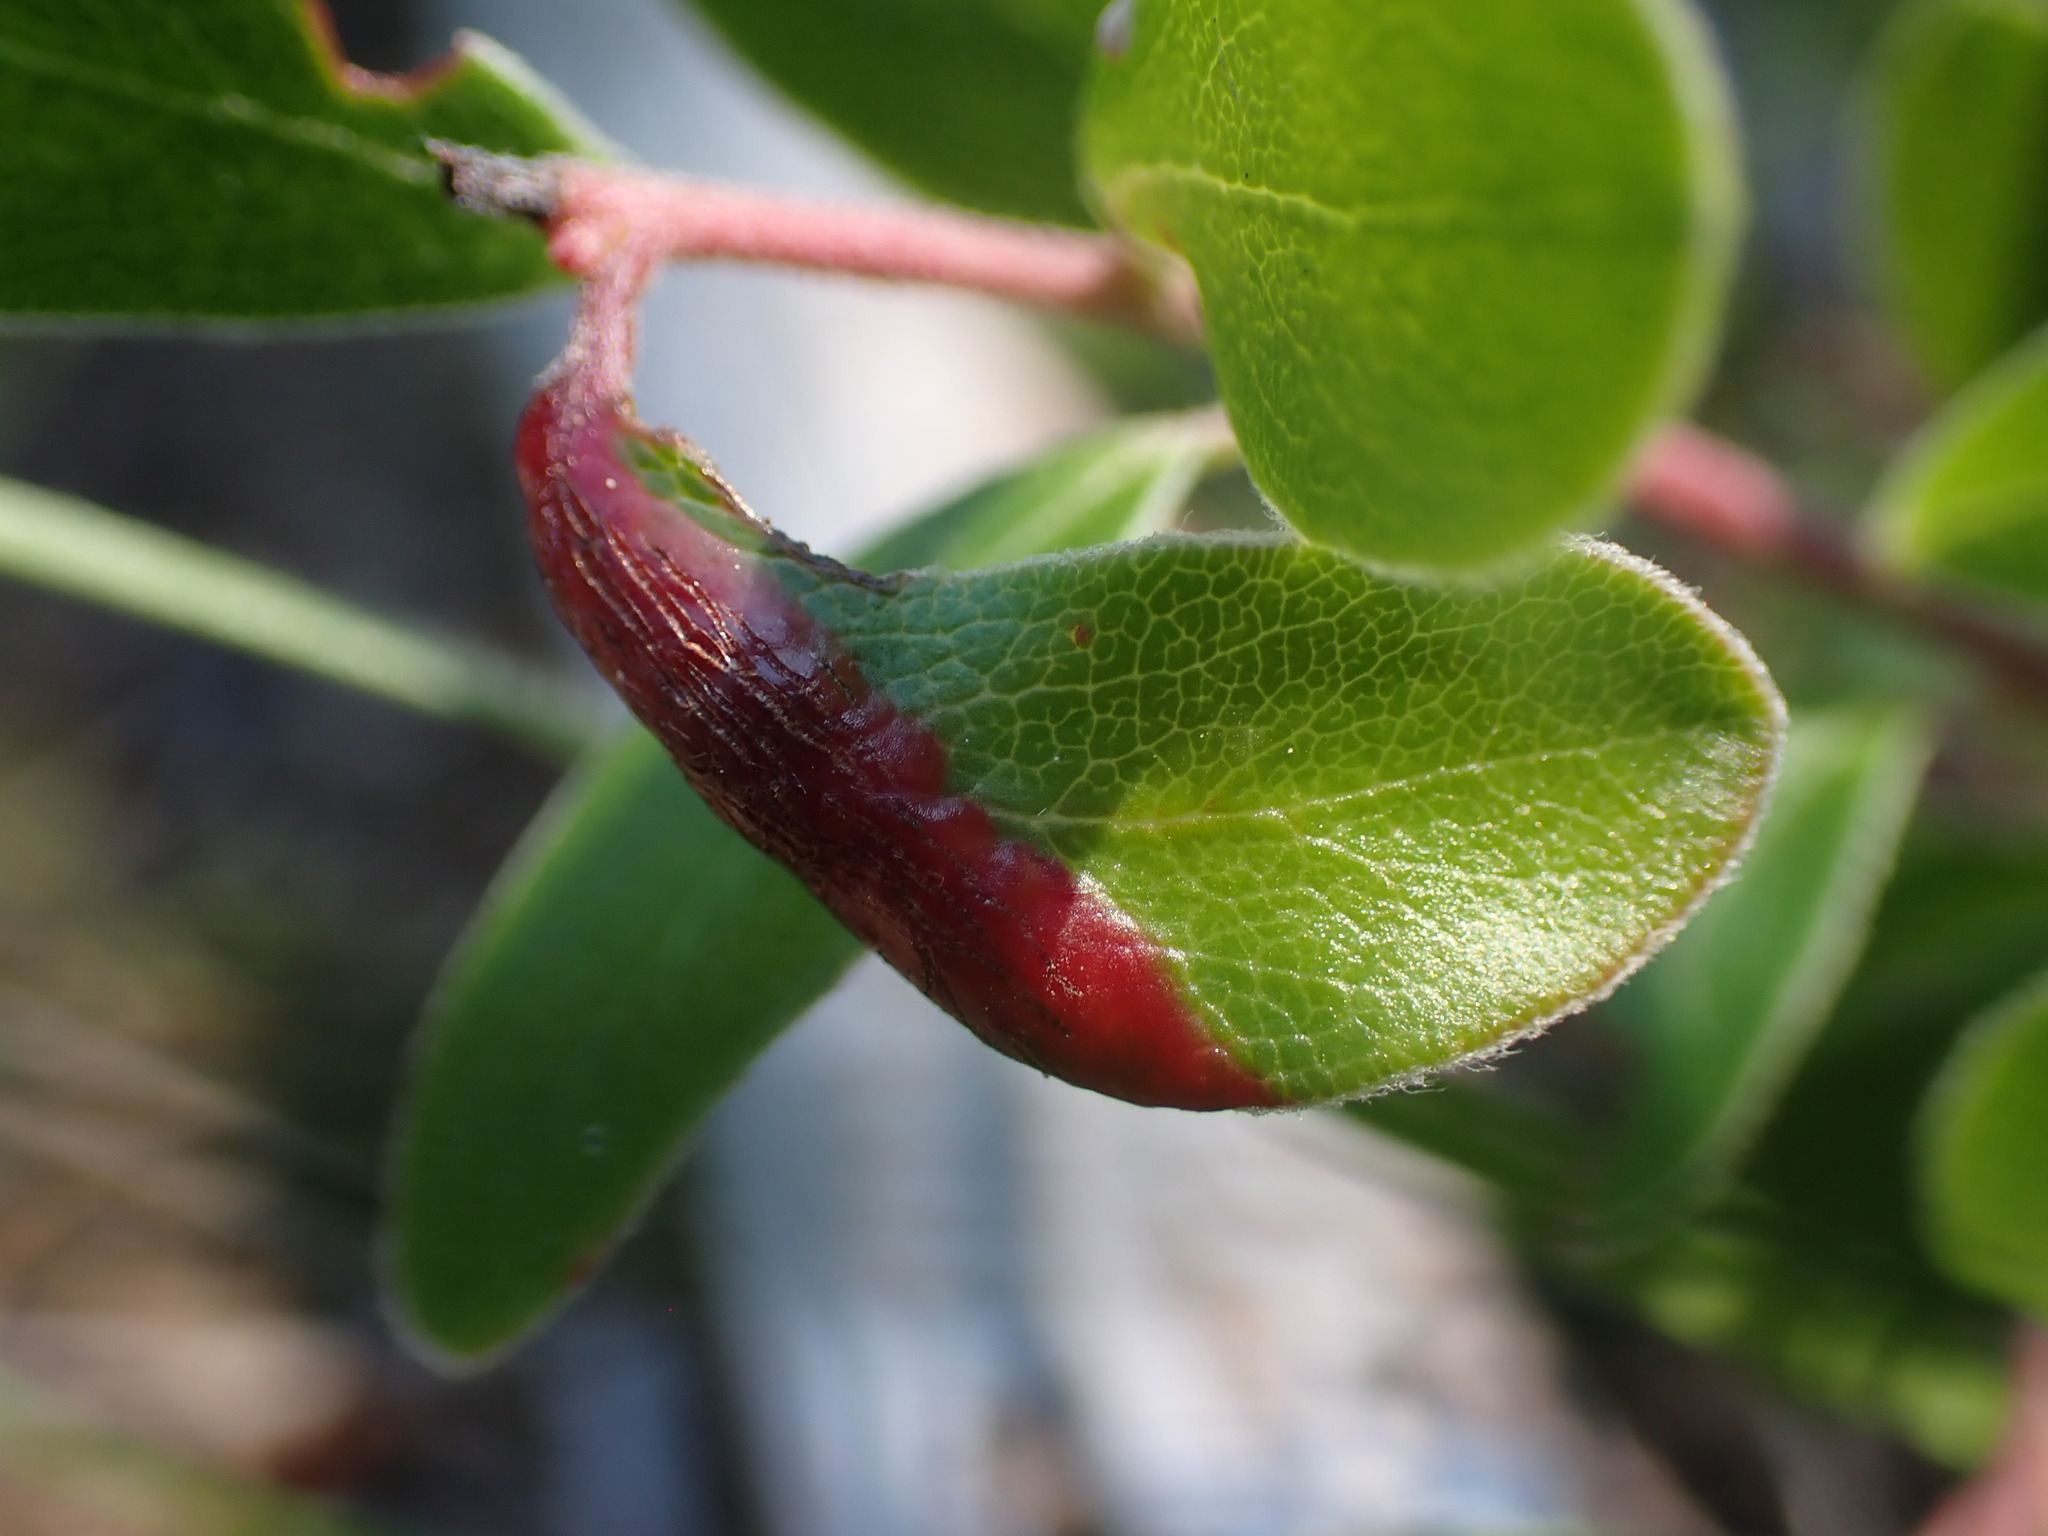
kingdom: Animalia
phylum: Arthropoda
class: Insecta
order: Hemiptera
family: Aphididae
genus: Tamalia
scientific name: Tamalia coweni
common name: Manzanita leafgall aphid
